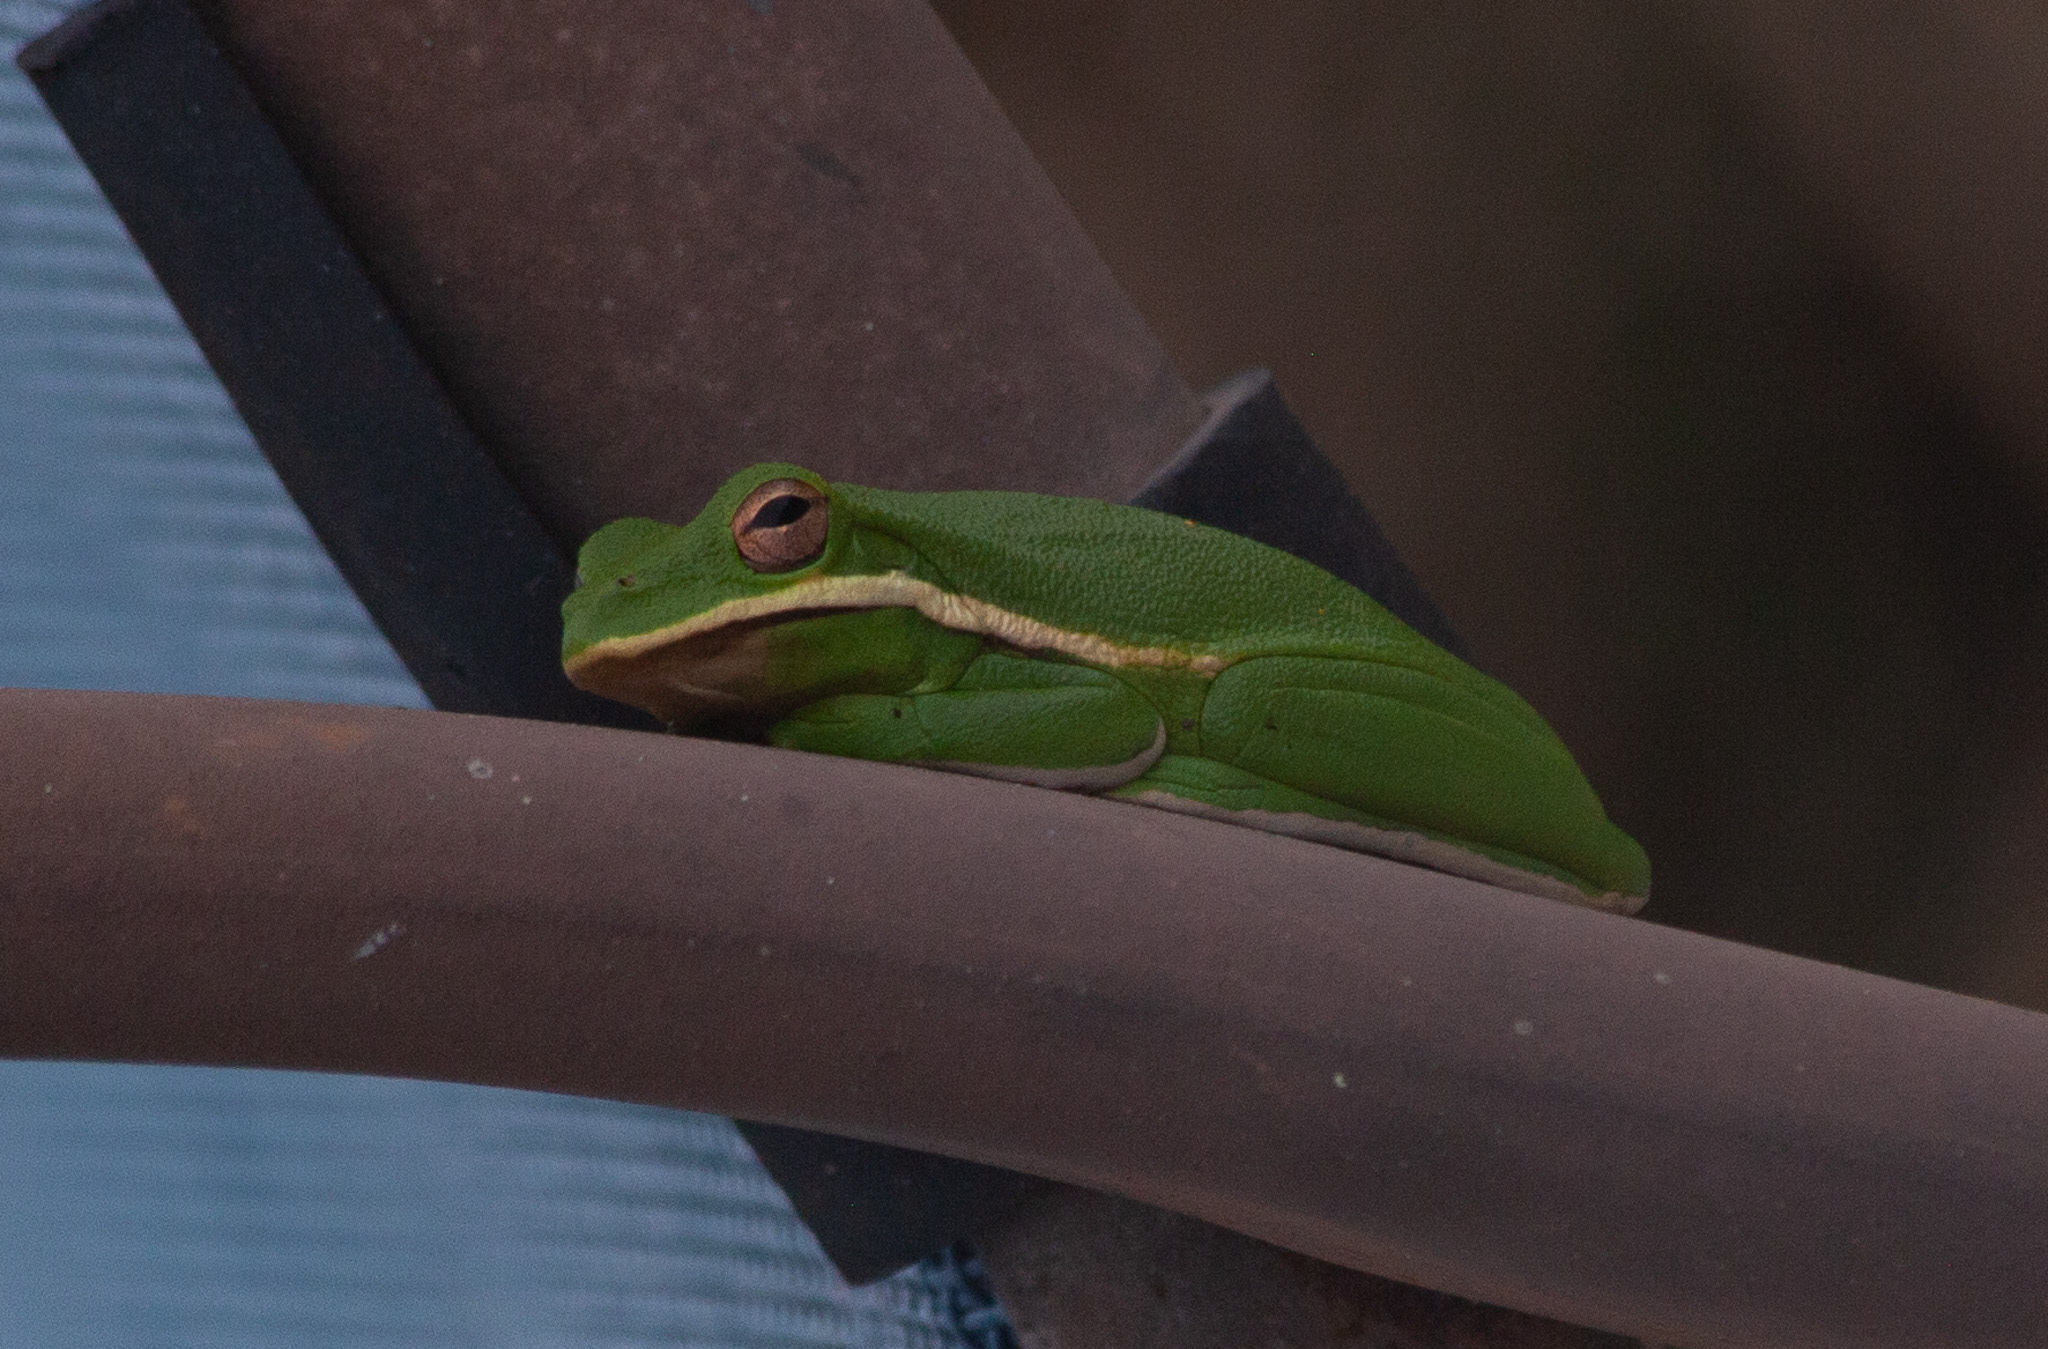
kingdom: Animalia
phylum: Chordata
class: Amphibia
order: Anura
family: Hylidae
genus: Dryophytes
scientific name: Dryophytes cinereus
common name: Green treefrog
